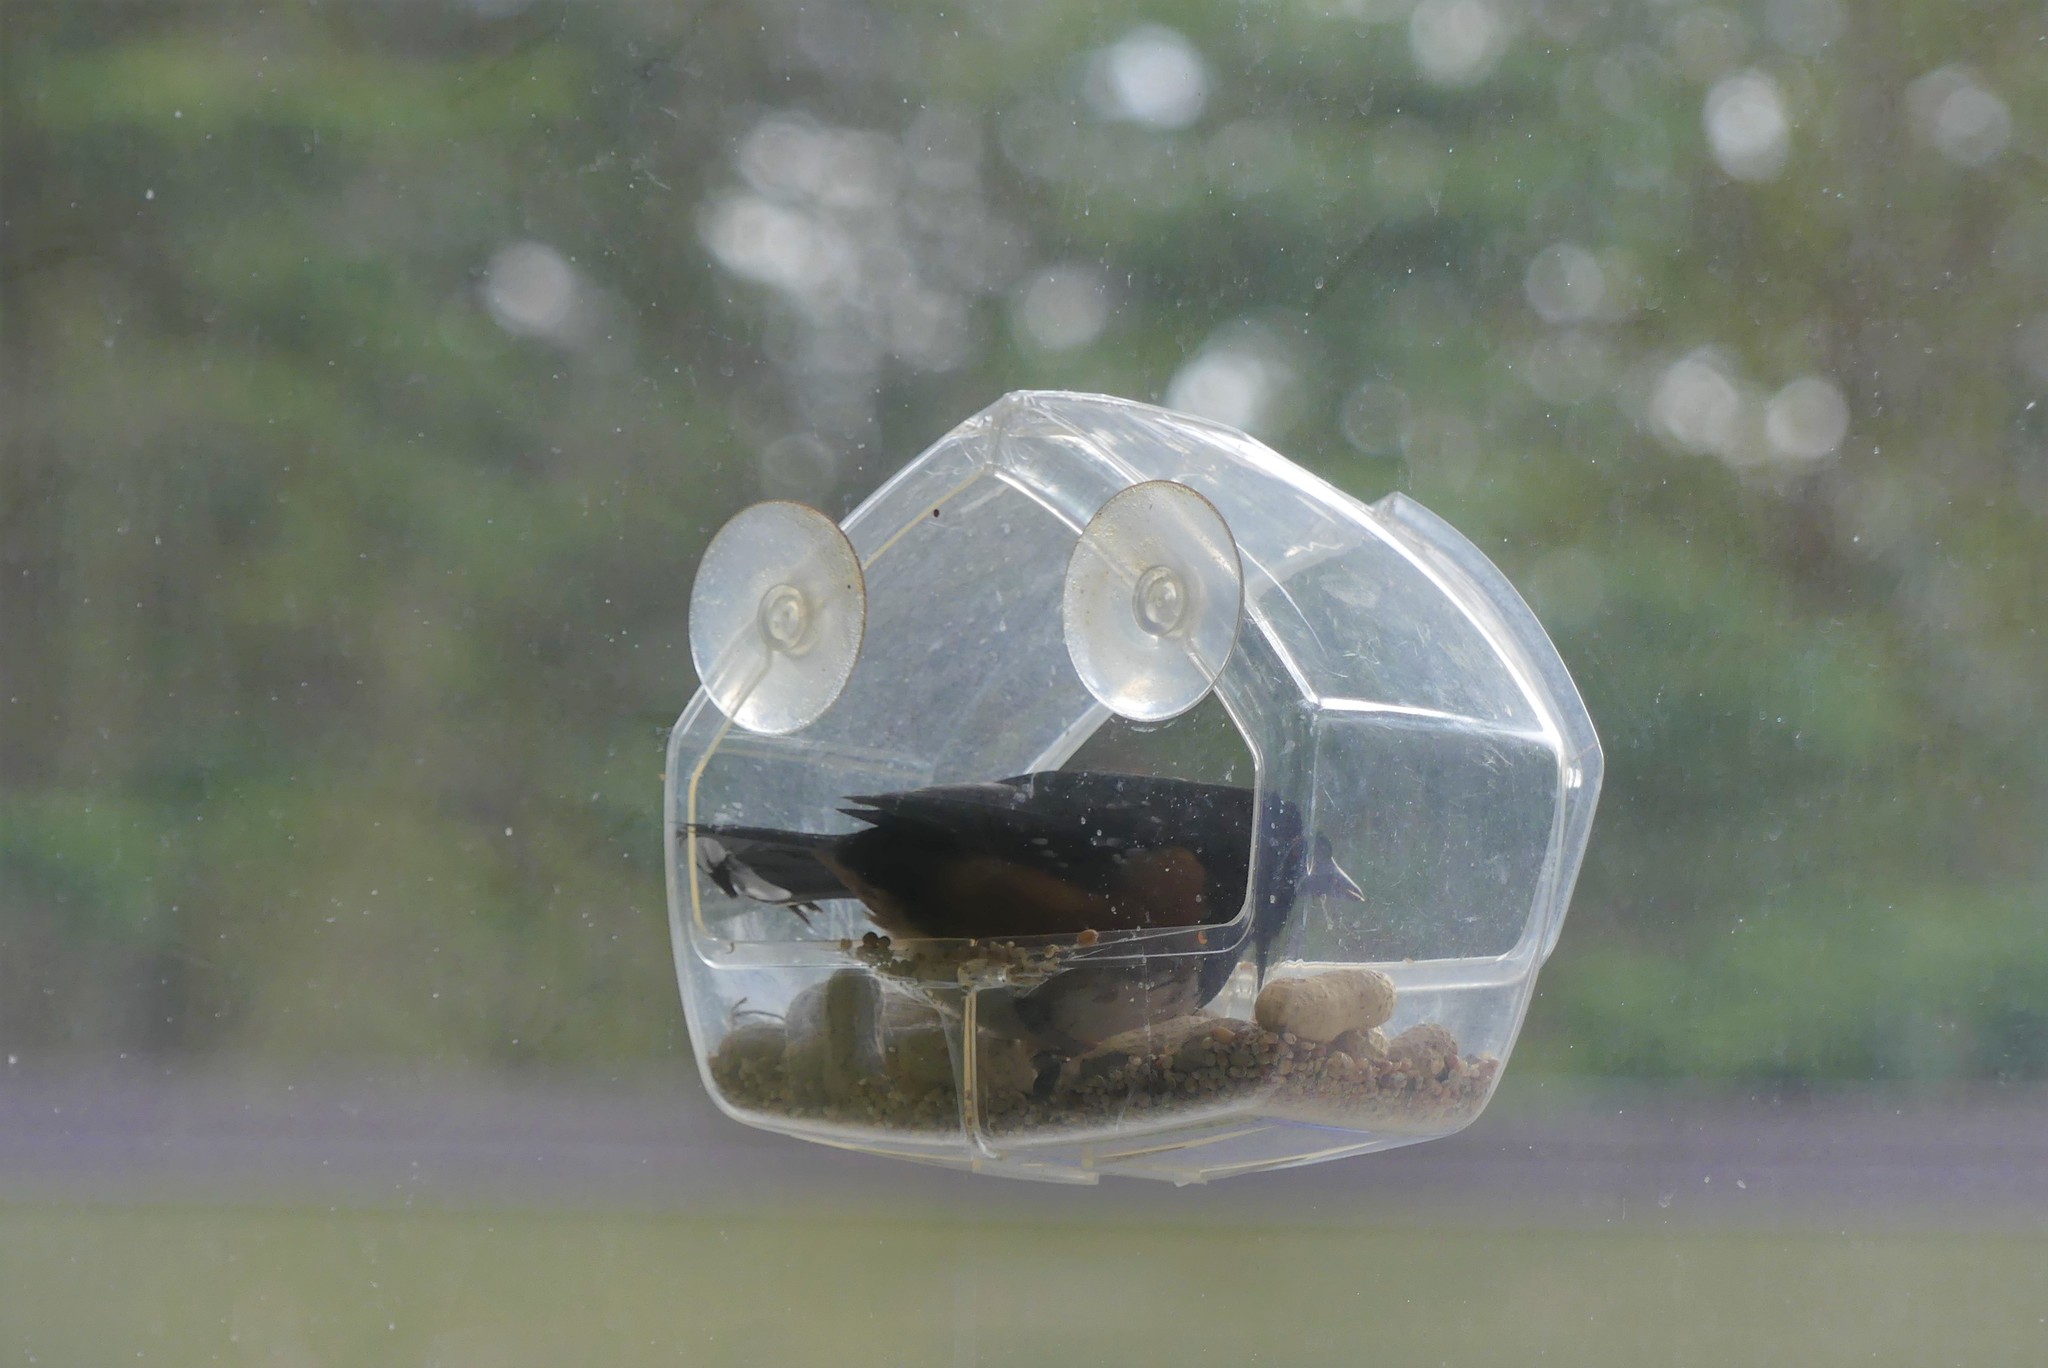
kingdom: Animalia
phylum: Chordata
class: Aves
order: Passeriformes
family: Passerellidae
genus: Pipilo
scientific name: Pipilo maculatus
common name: Spotted towhee
